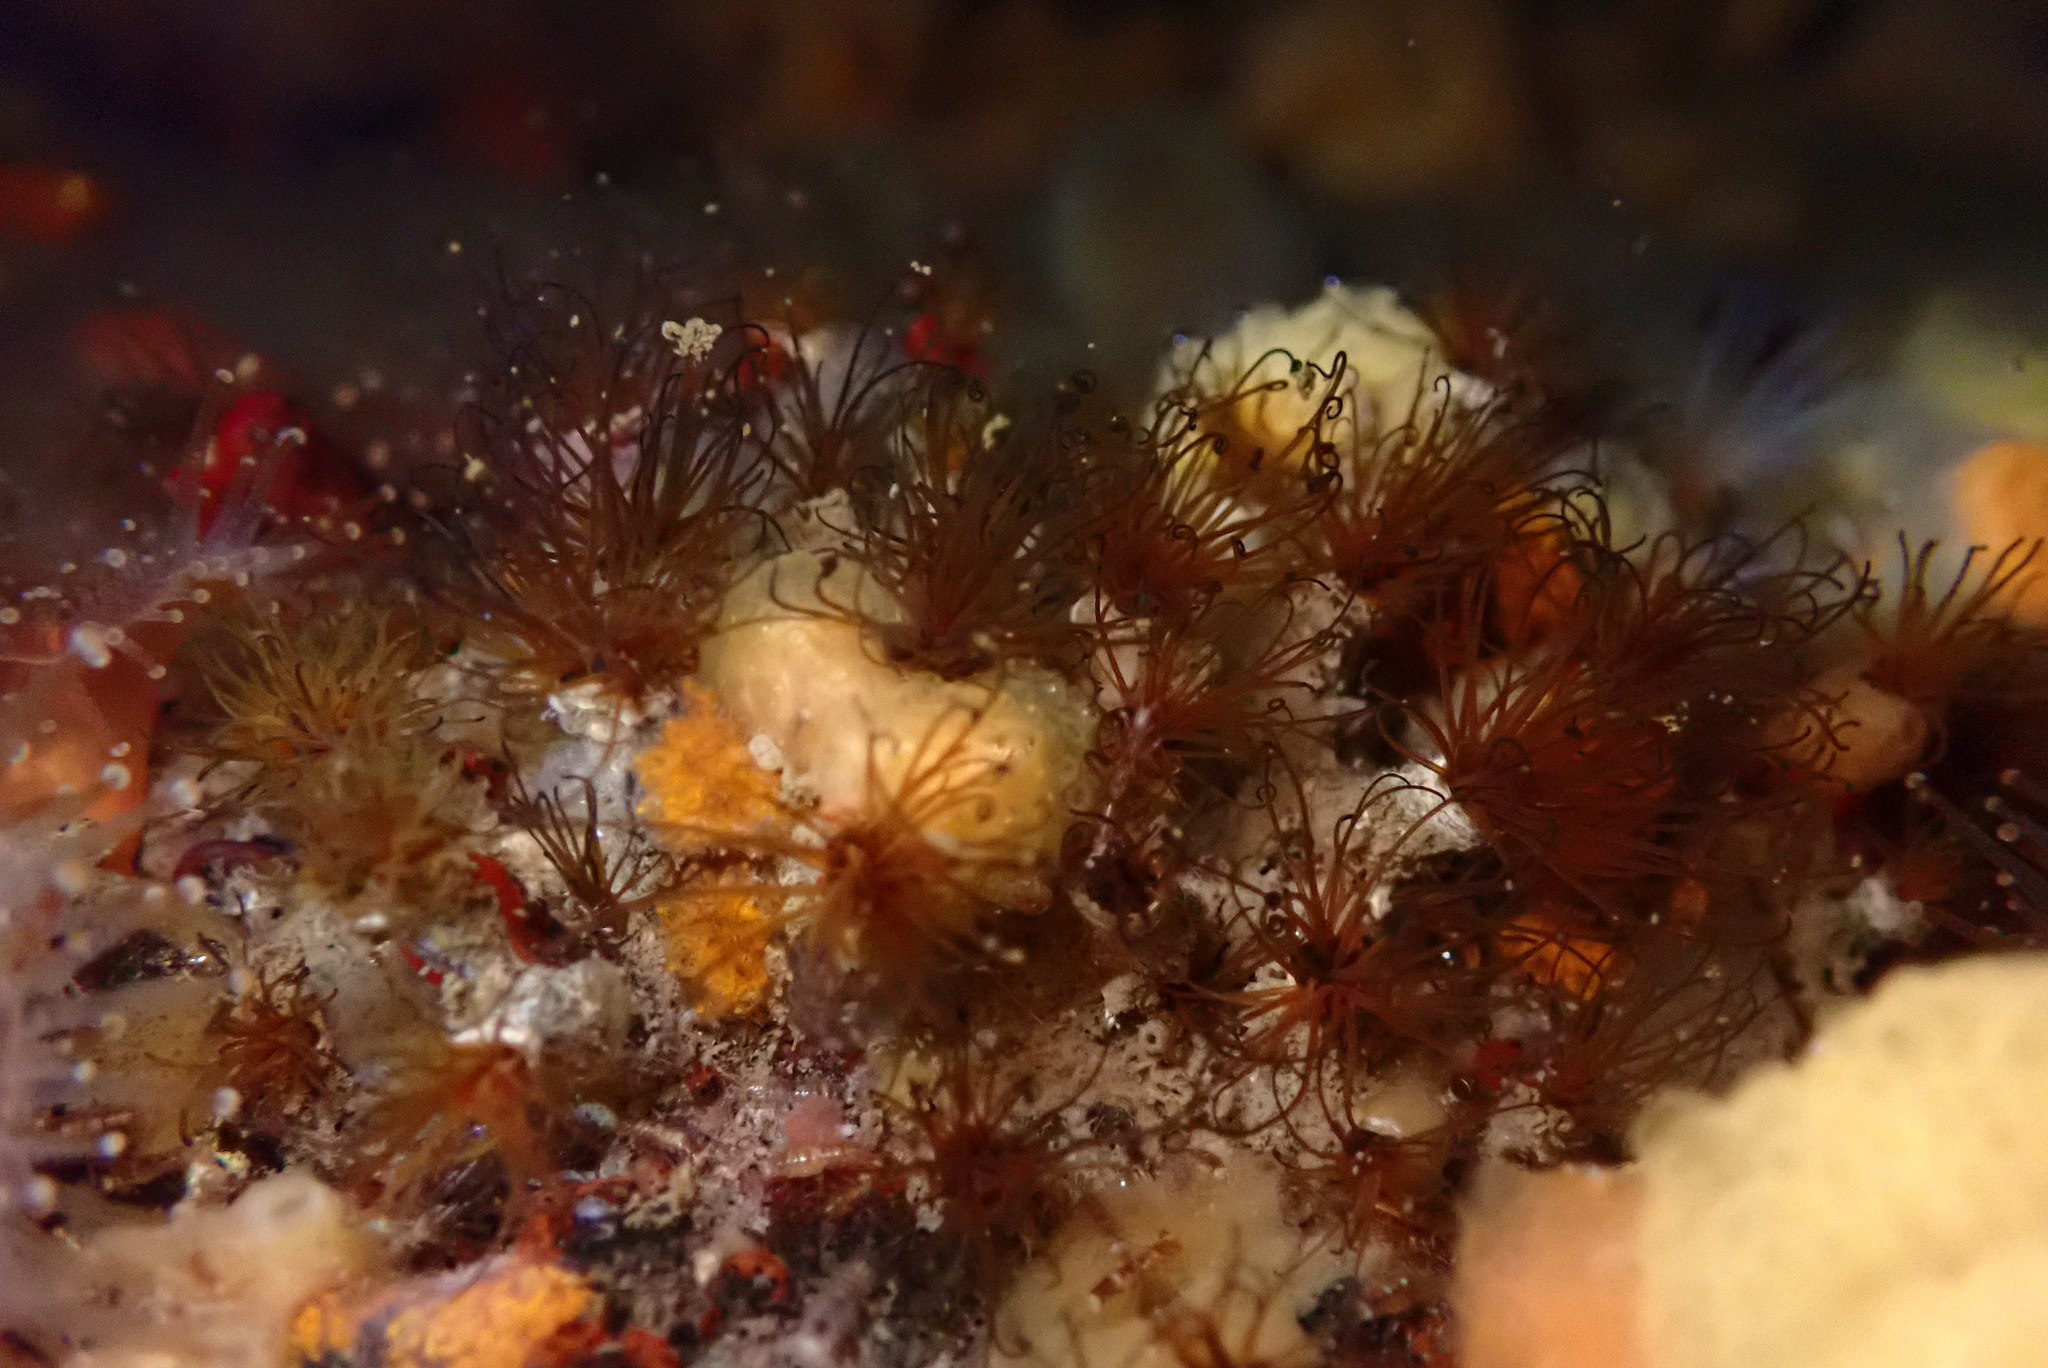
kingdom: Animalia
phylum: Annelida
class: Polychaeta
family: Cirratulidae
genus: Dodecaceria
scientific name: Dodecaceria pacifica
